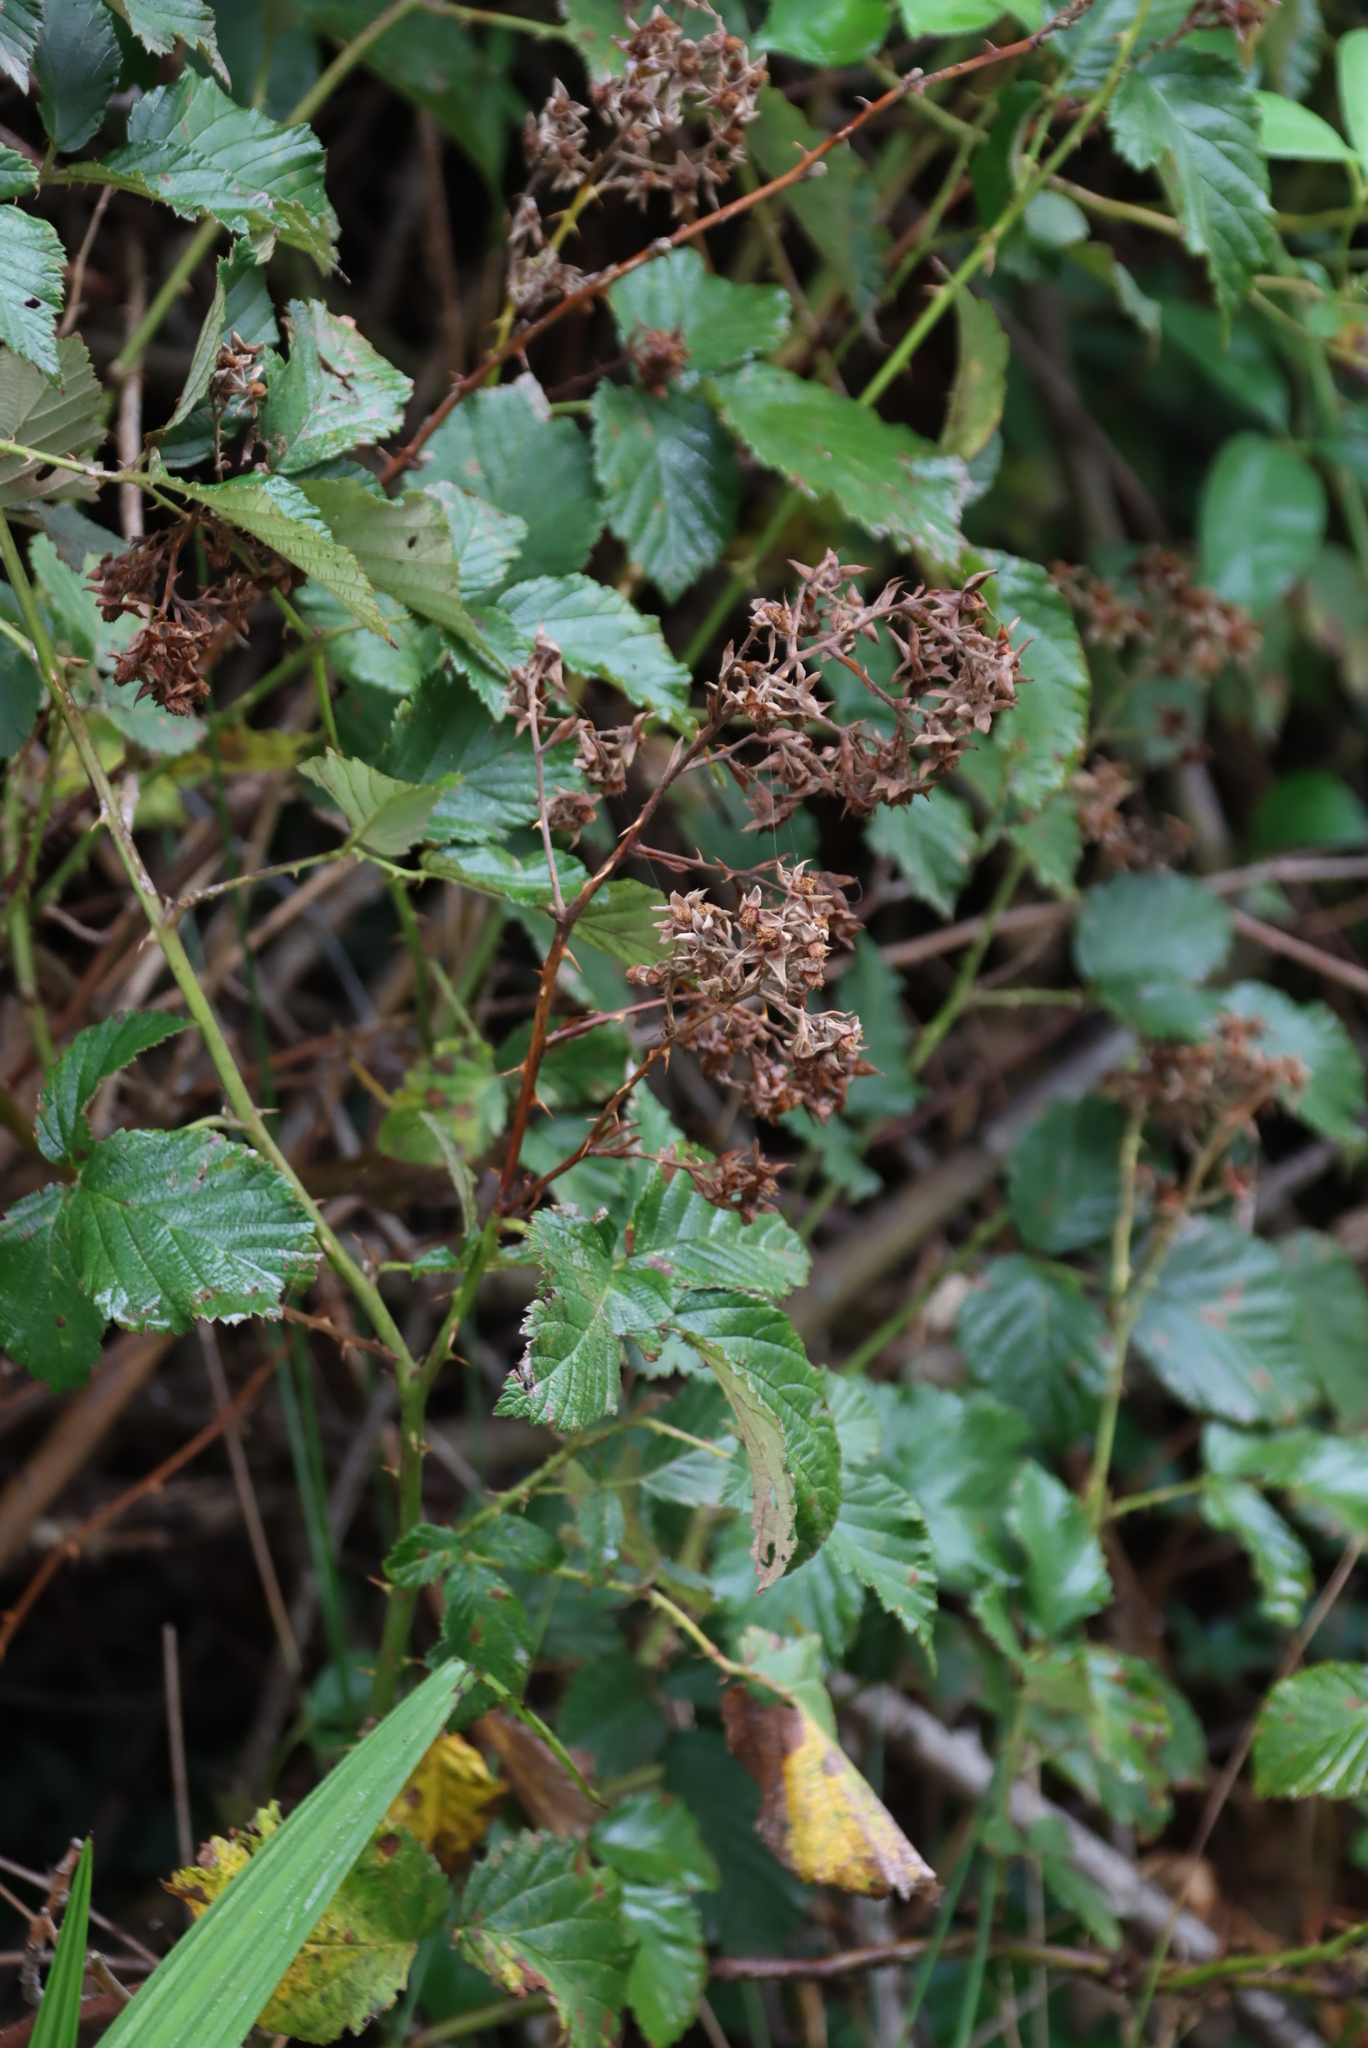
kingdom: Plantae
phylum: Tracheophyta
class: Magnoliopsida
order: Rosales
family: Rosaceae
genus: Rubus
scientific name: Rubus rigidus
